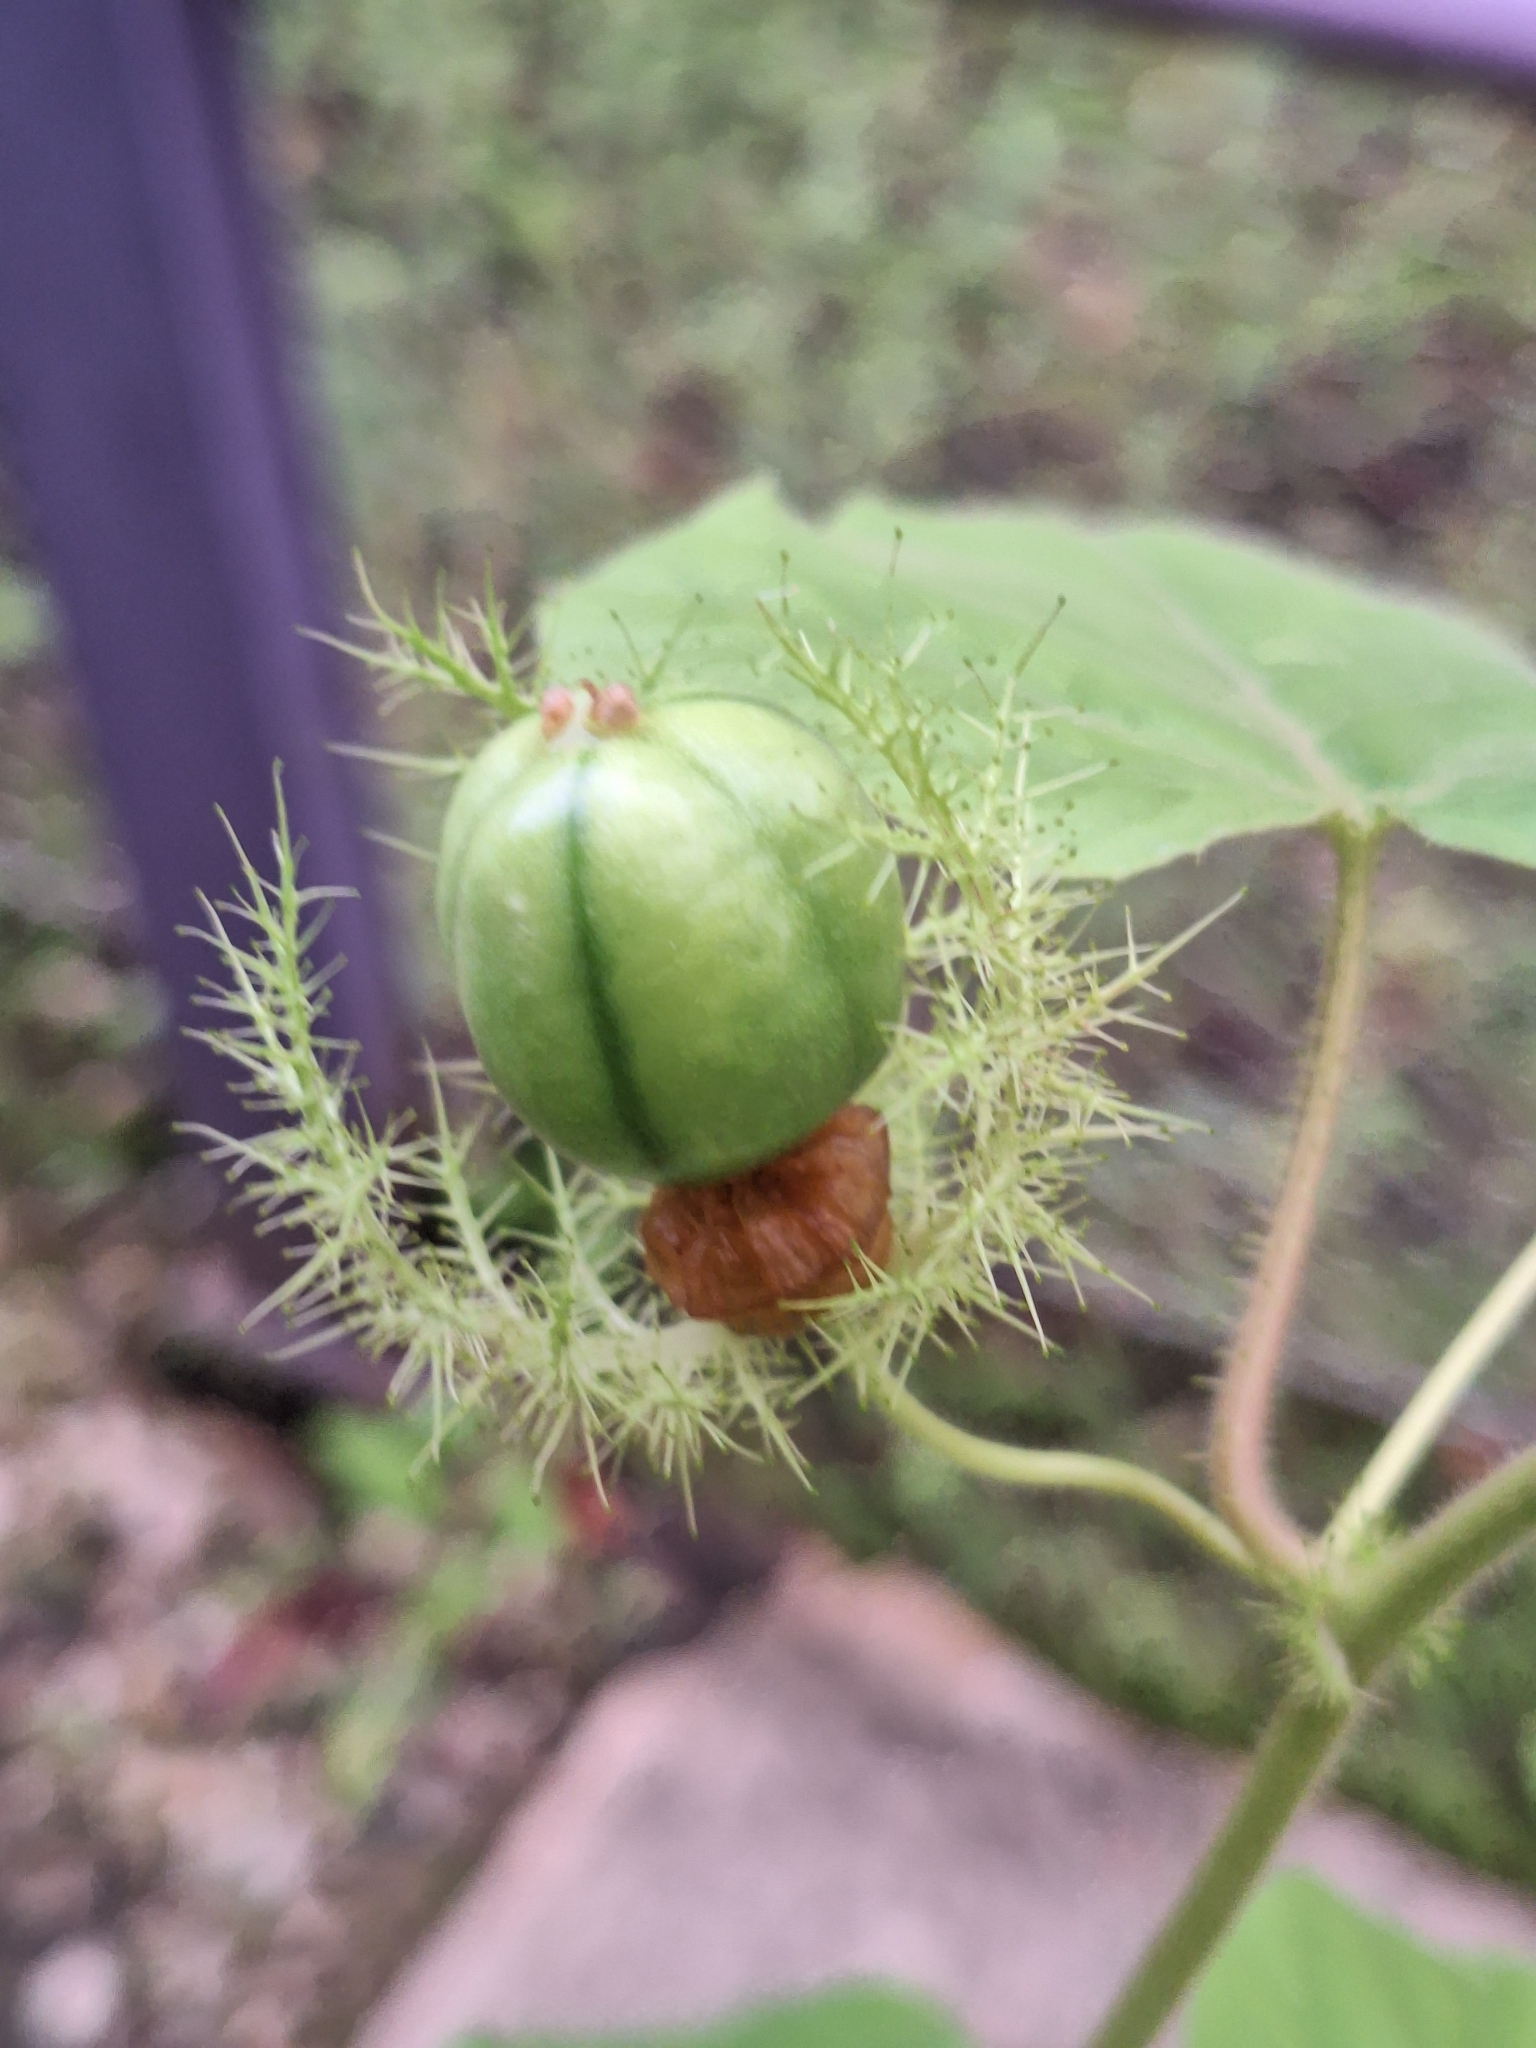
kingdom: Plantae
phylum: Tracheophyta
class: Magnoliopsida
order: Malpighiales
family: Passifloraceae
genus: Passiflora
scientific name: Passiflora vesicaria
